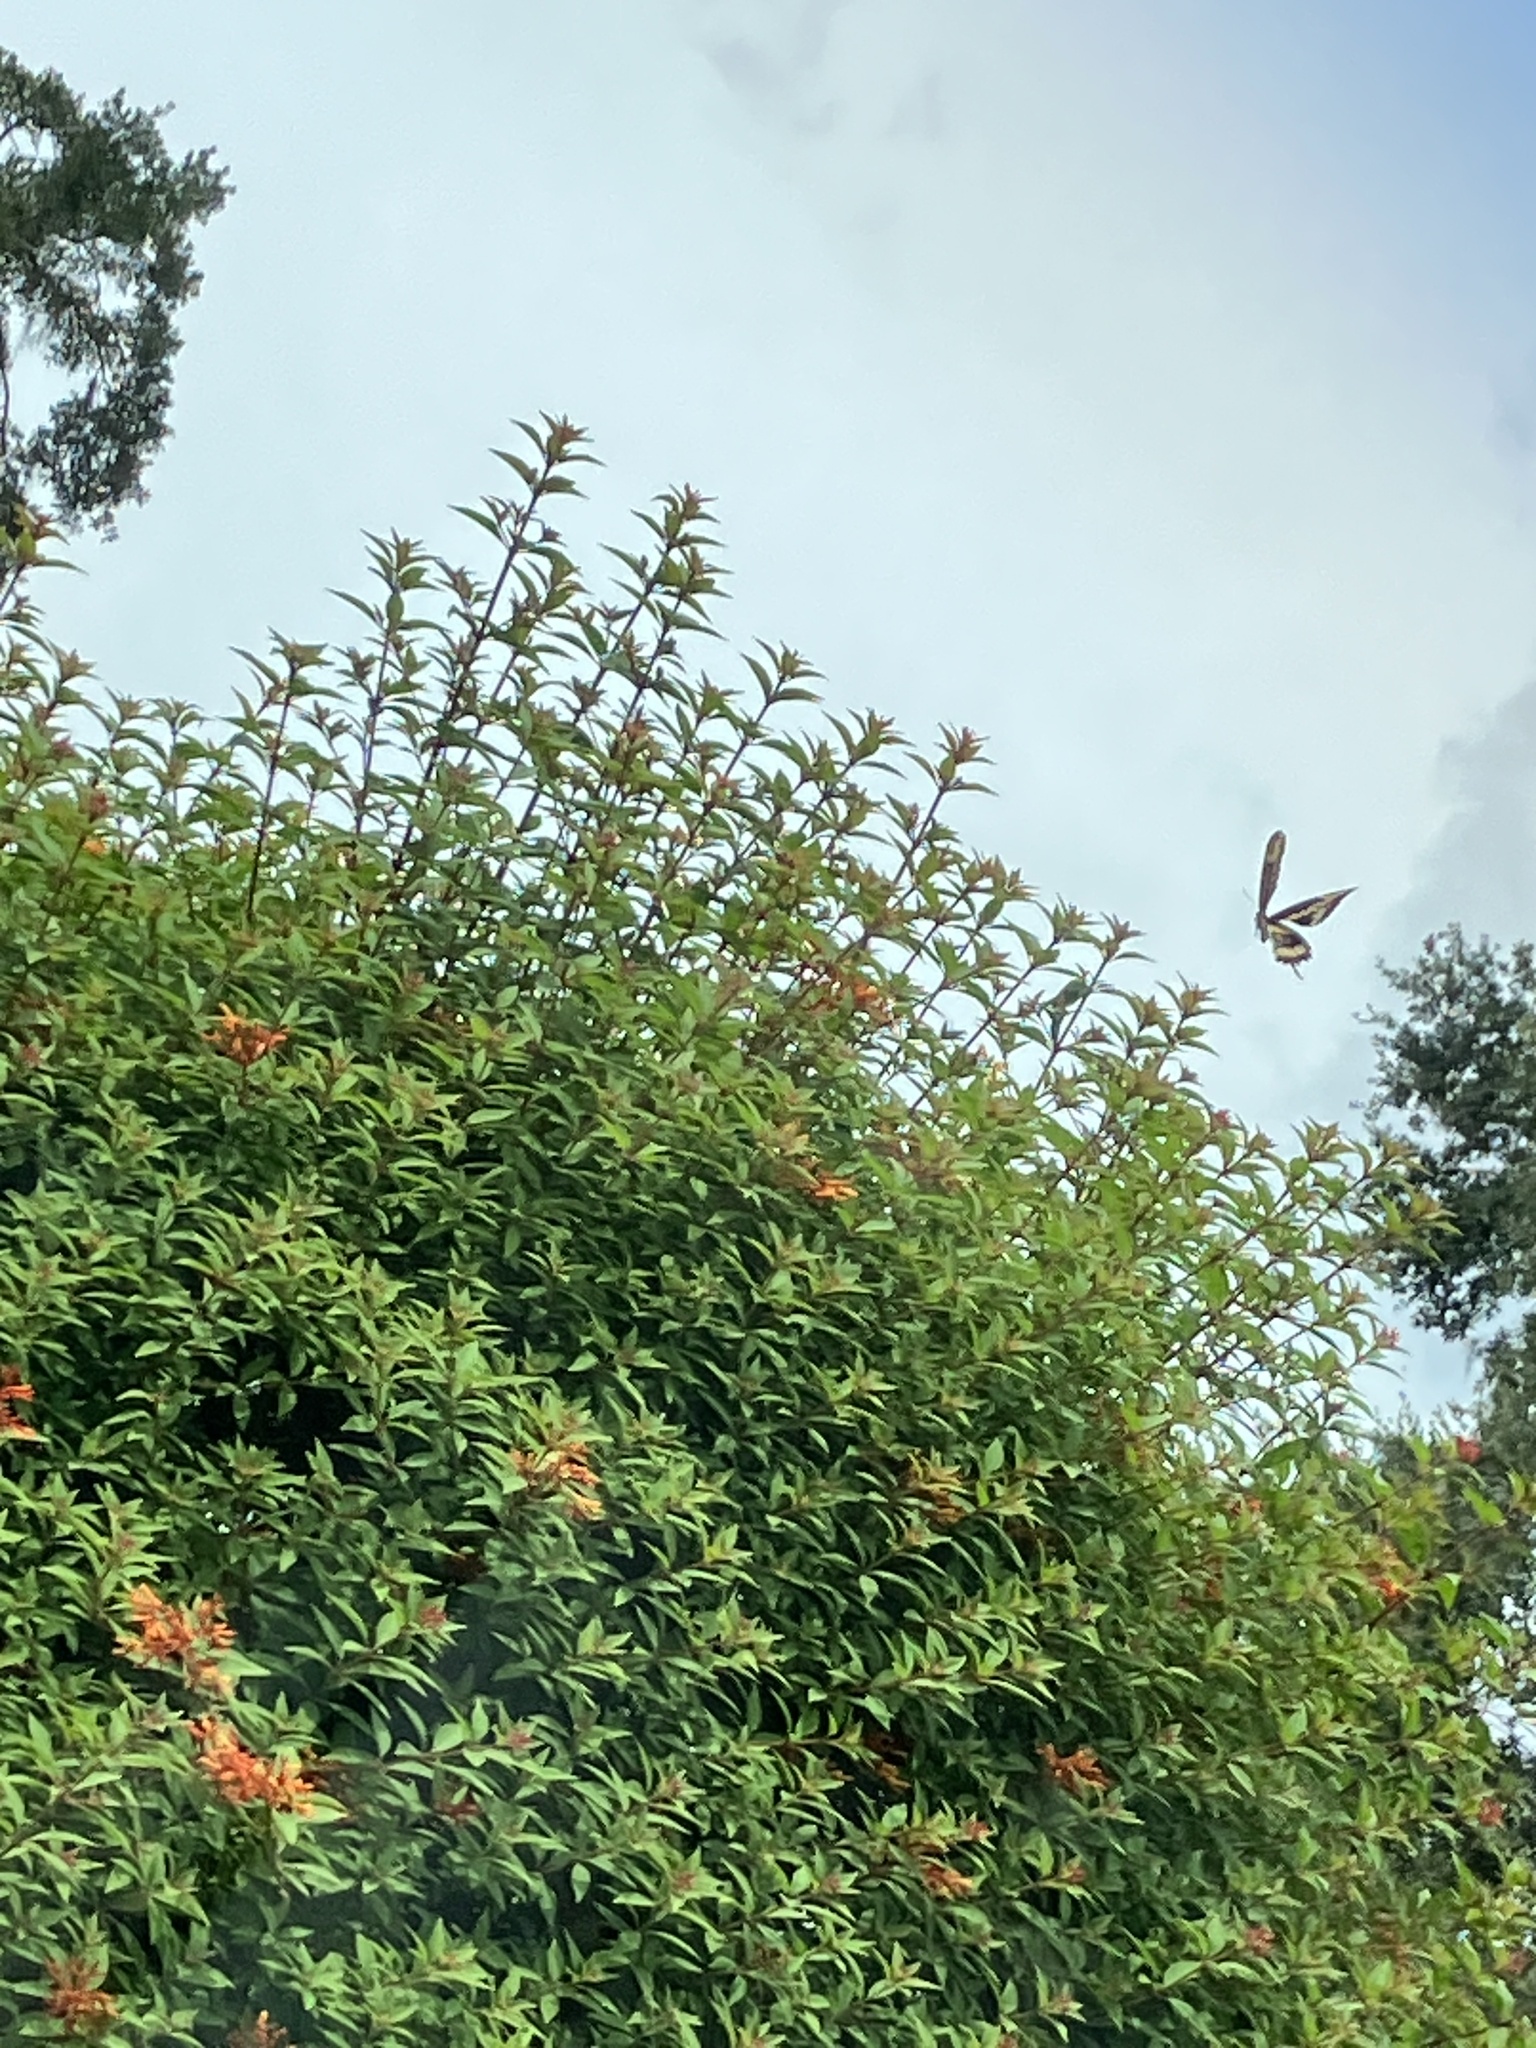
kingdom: Animalia
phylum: Arthropoda
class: Insecta
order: Lepidoptera
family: Papilionidae
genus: Papilio
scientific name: Papilio cresphontes
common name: Giant swallowtail
